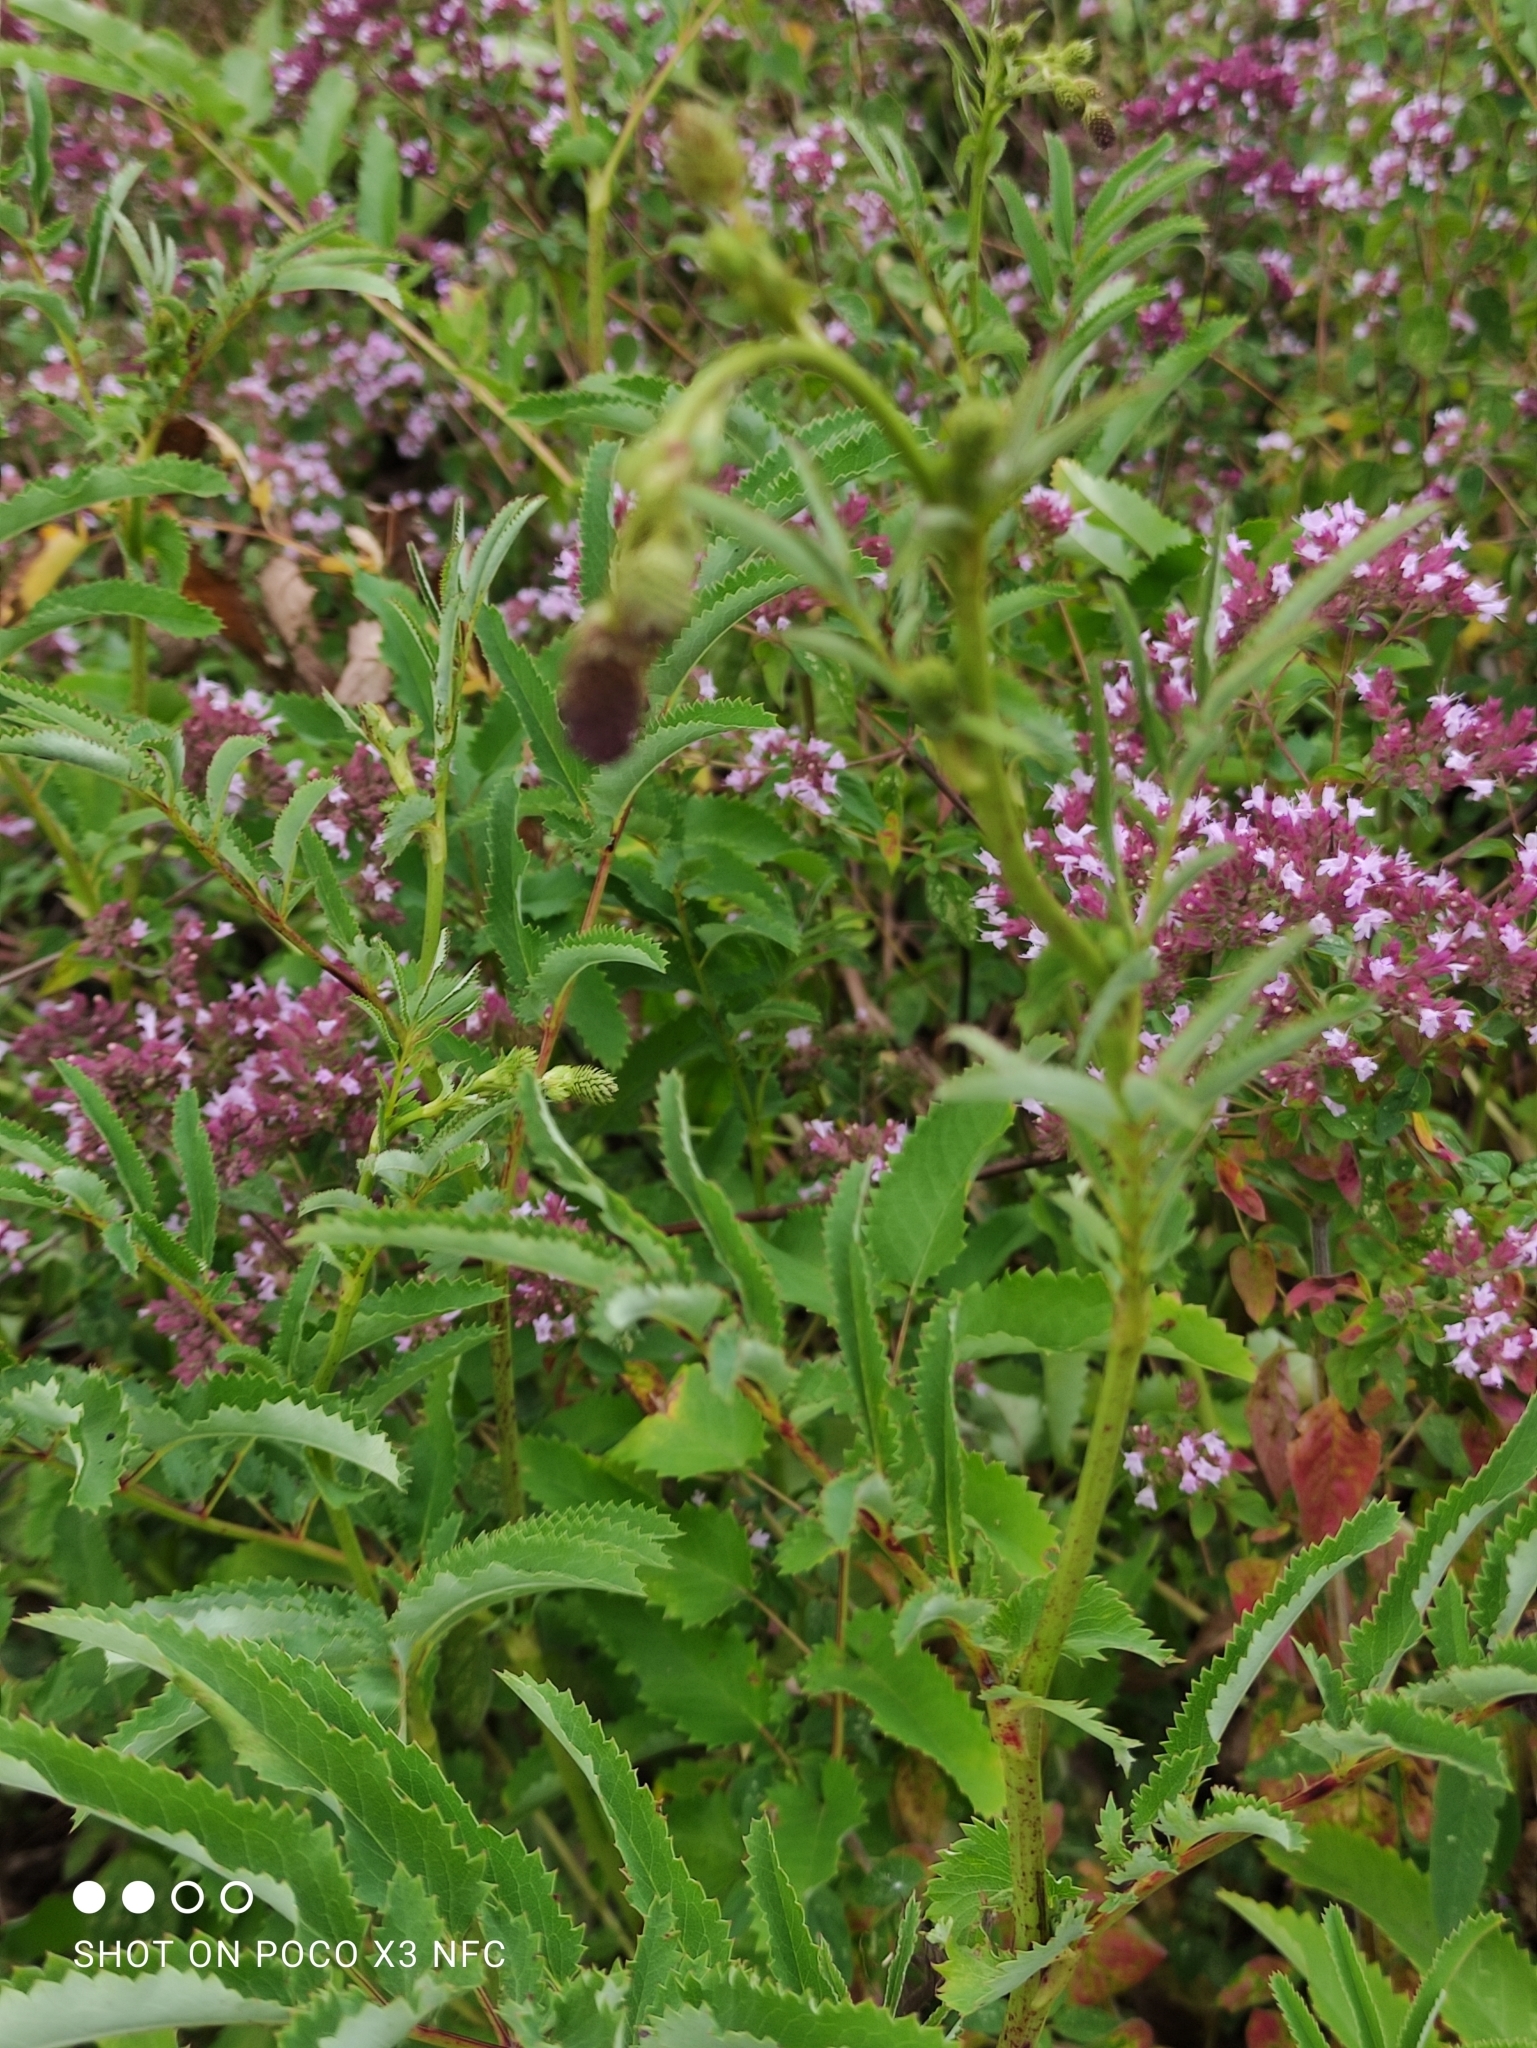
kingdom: Plantae
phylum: Tracheophyta
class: Magnoliopsida
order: Rosales
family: Rosaceae
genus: Sanguisorba
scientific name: Sanguisorba officinalis
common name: Great burnet
